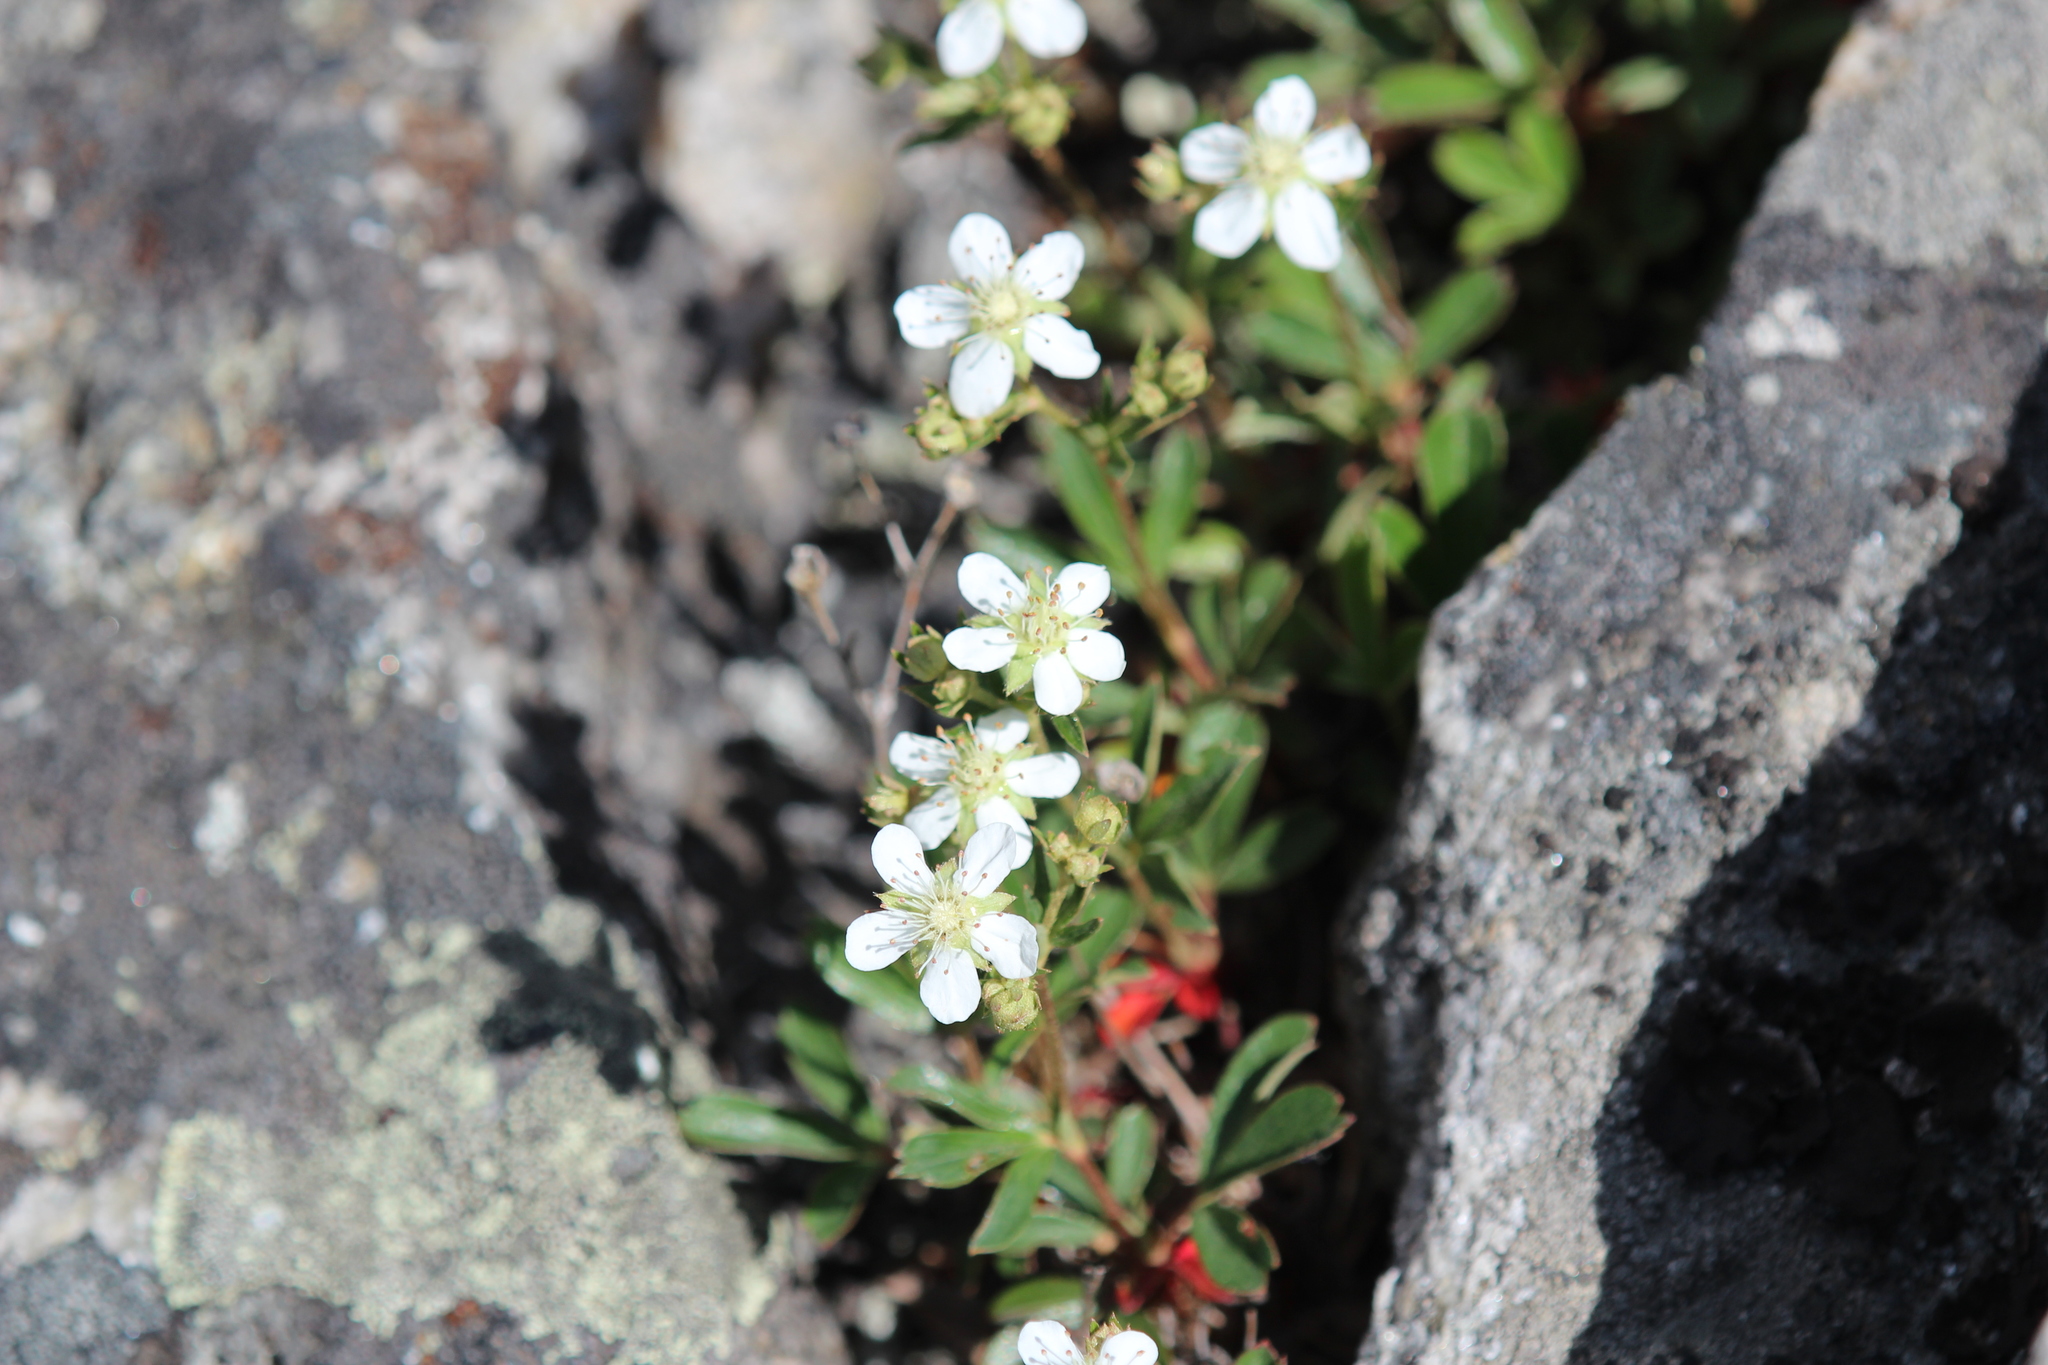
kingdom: Plantae
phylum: Tracheophyta
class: Magnoliopsida
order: Rosales
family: Rosaceae
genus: Sibbaldia
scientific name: Sibbaldia tridentata
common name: Three-toothed cinquefoil
